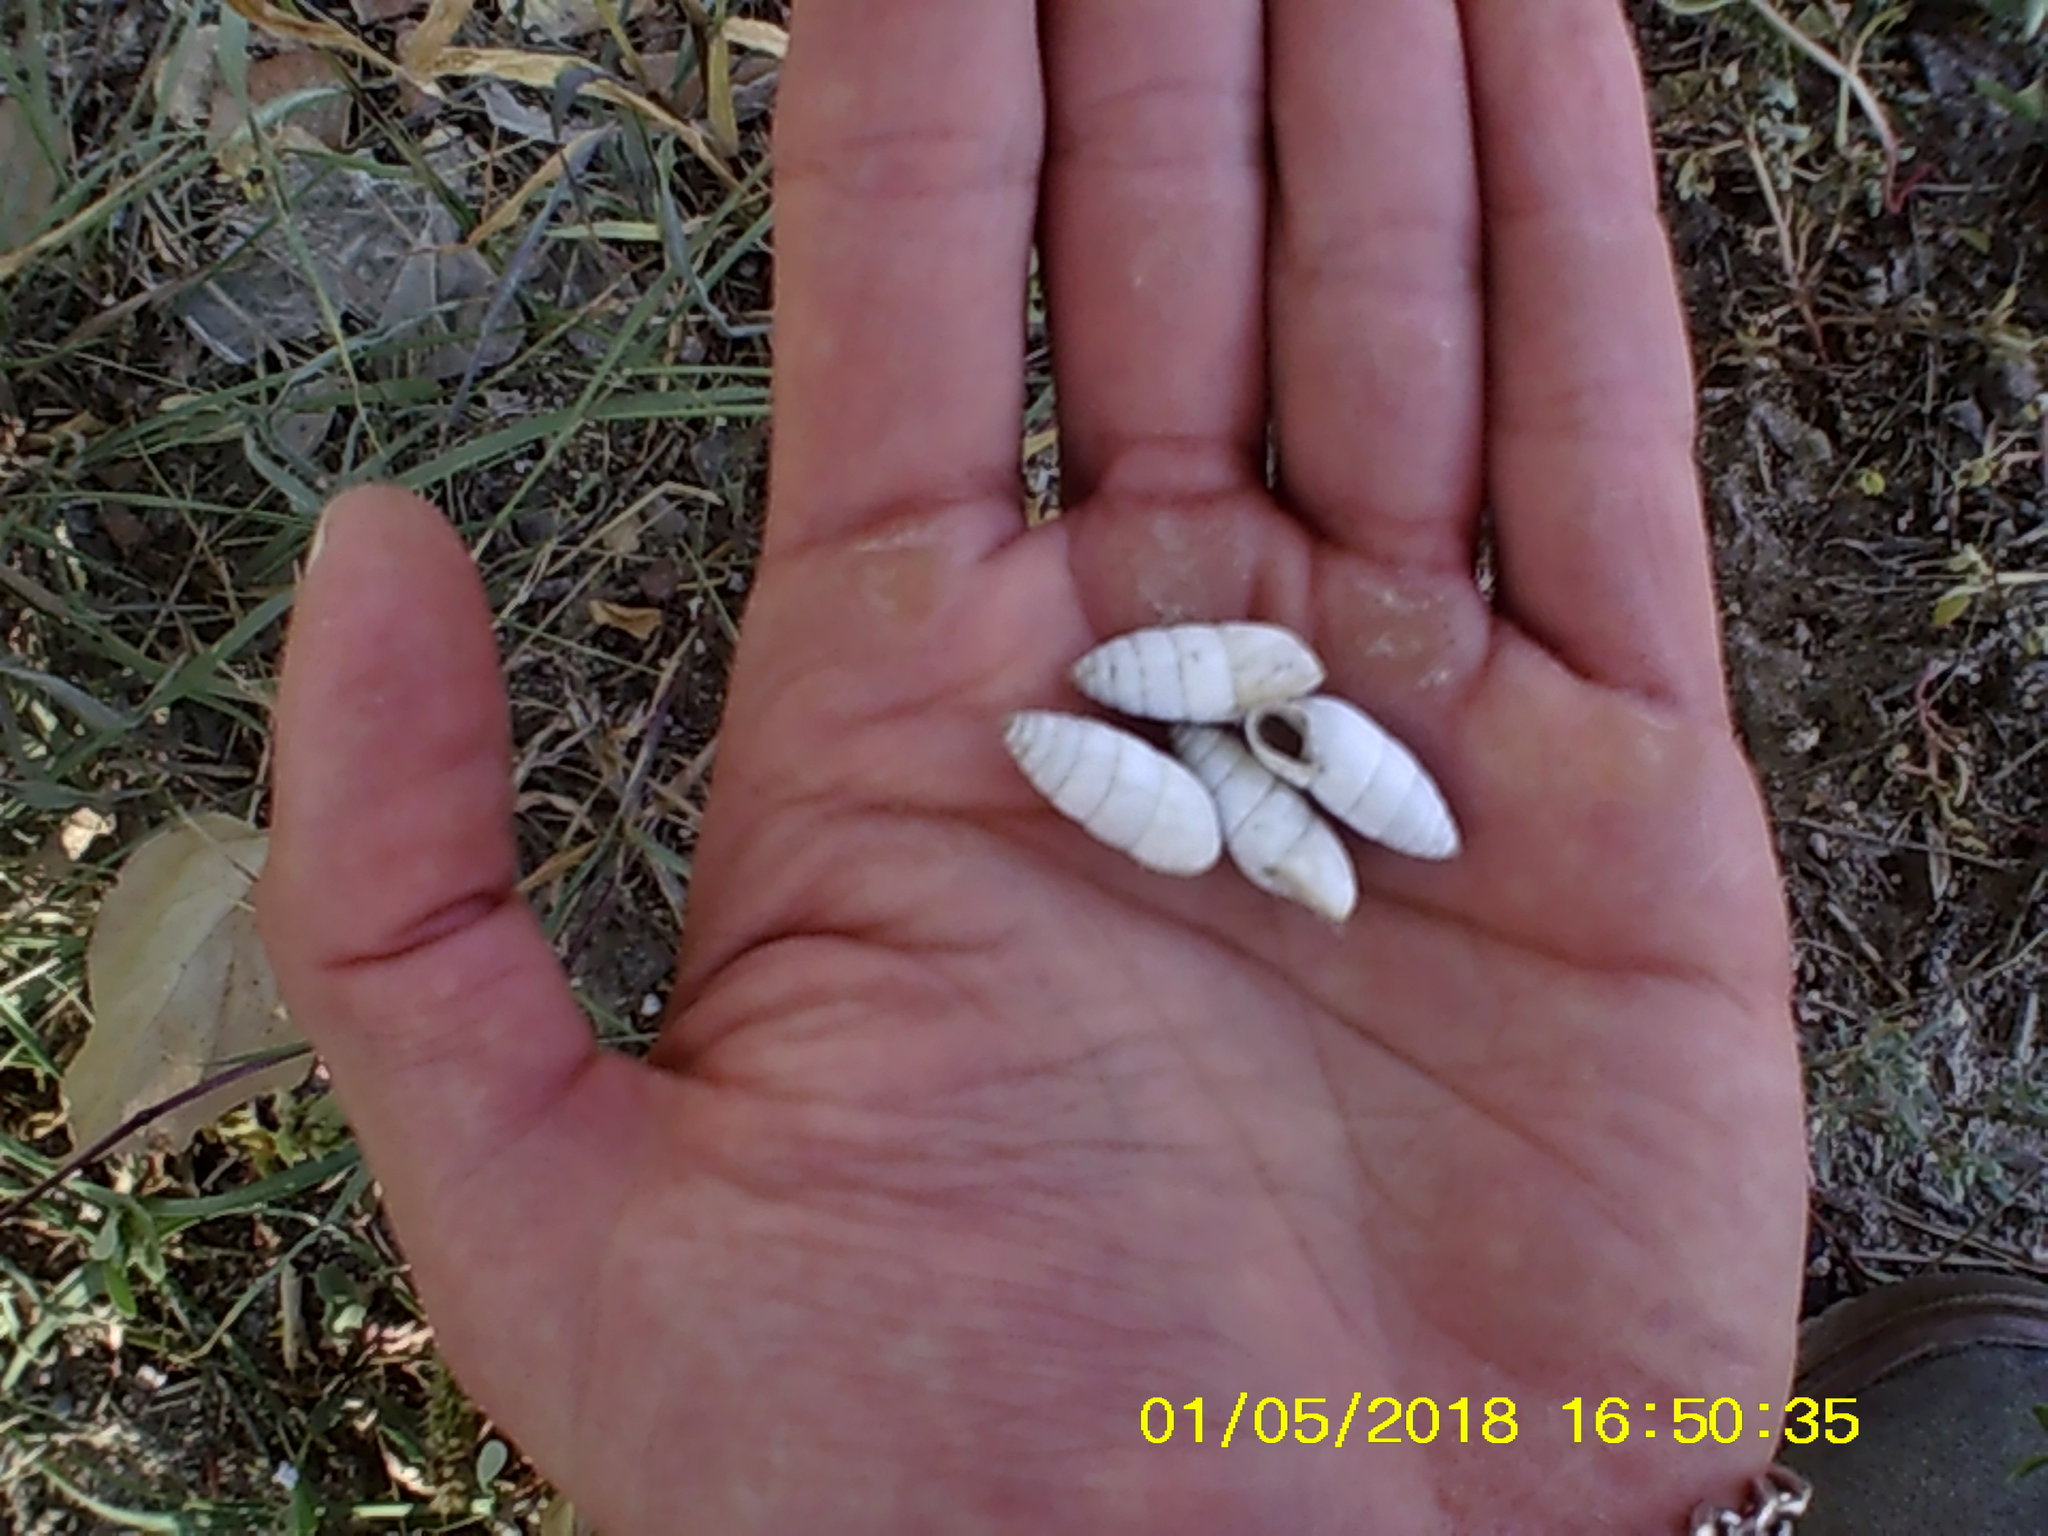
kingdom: Animalia
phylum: Mollusca
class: Gastropoda
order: Stylommatophora
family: Enidae
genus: Brephulopsis
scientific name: Brephulopsis cylindrica
